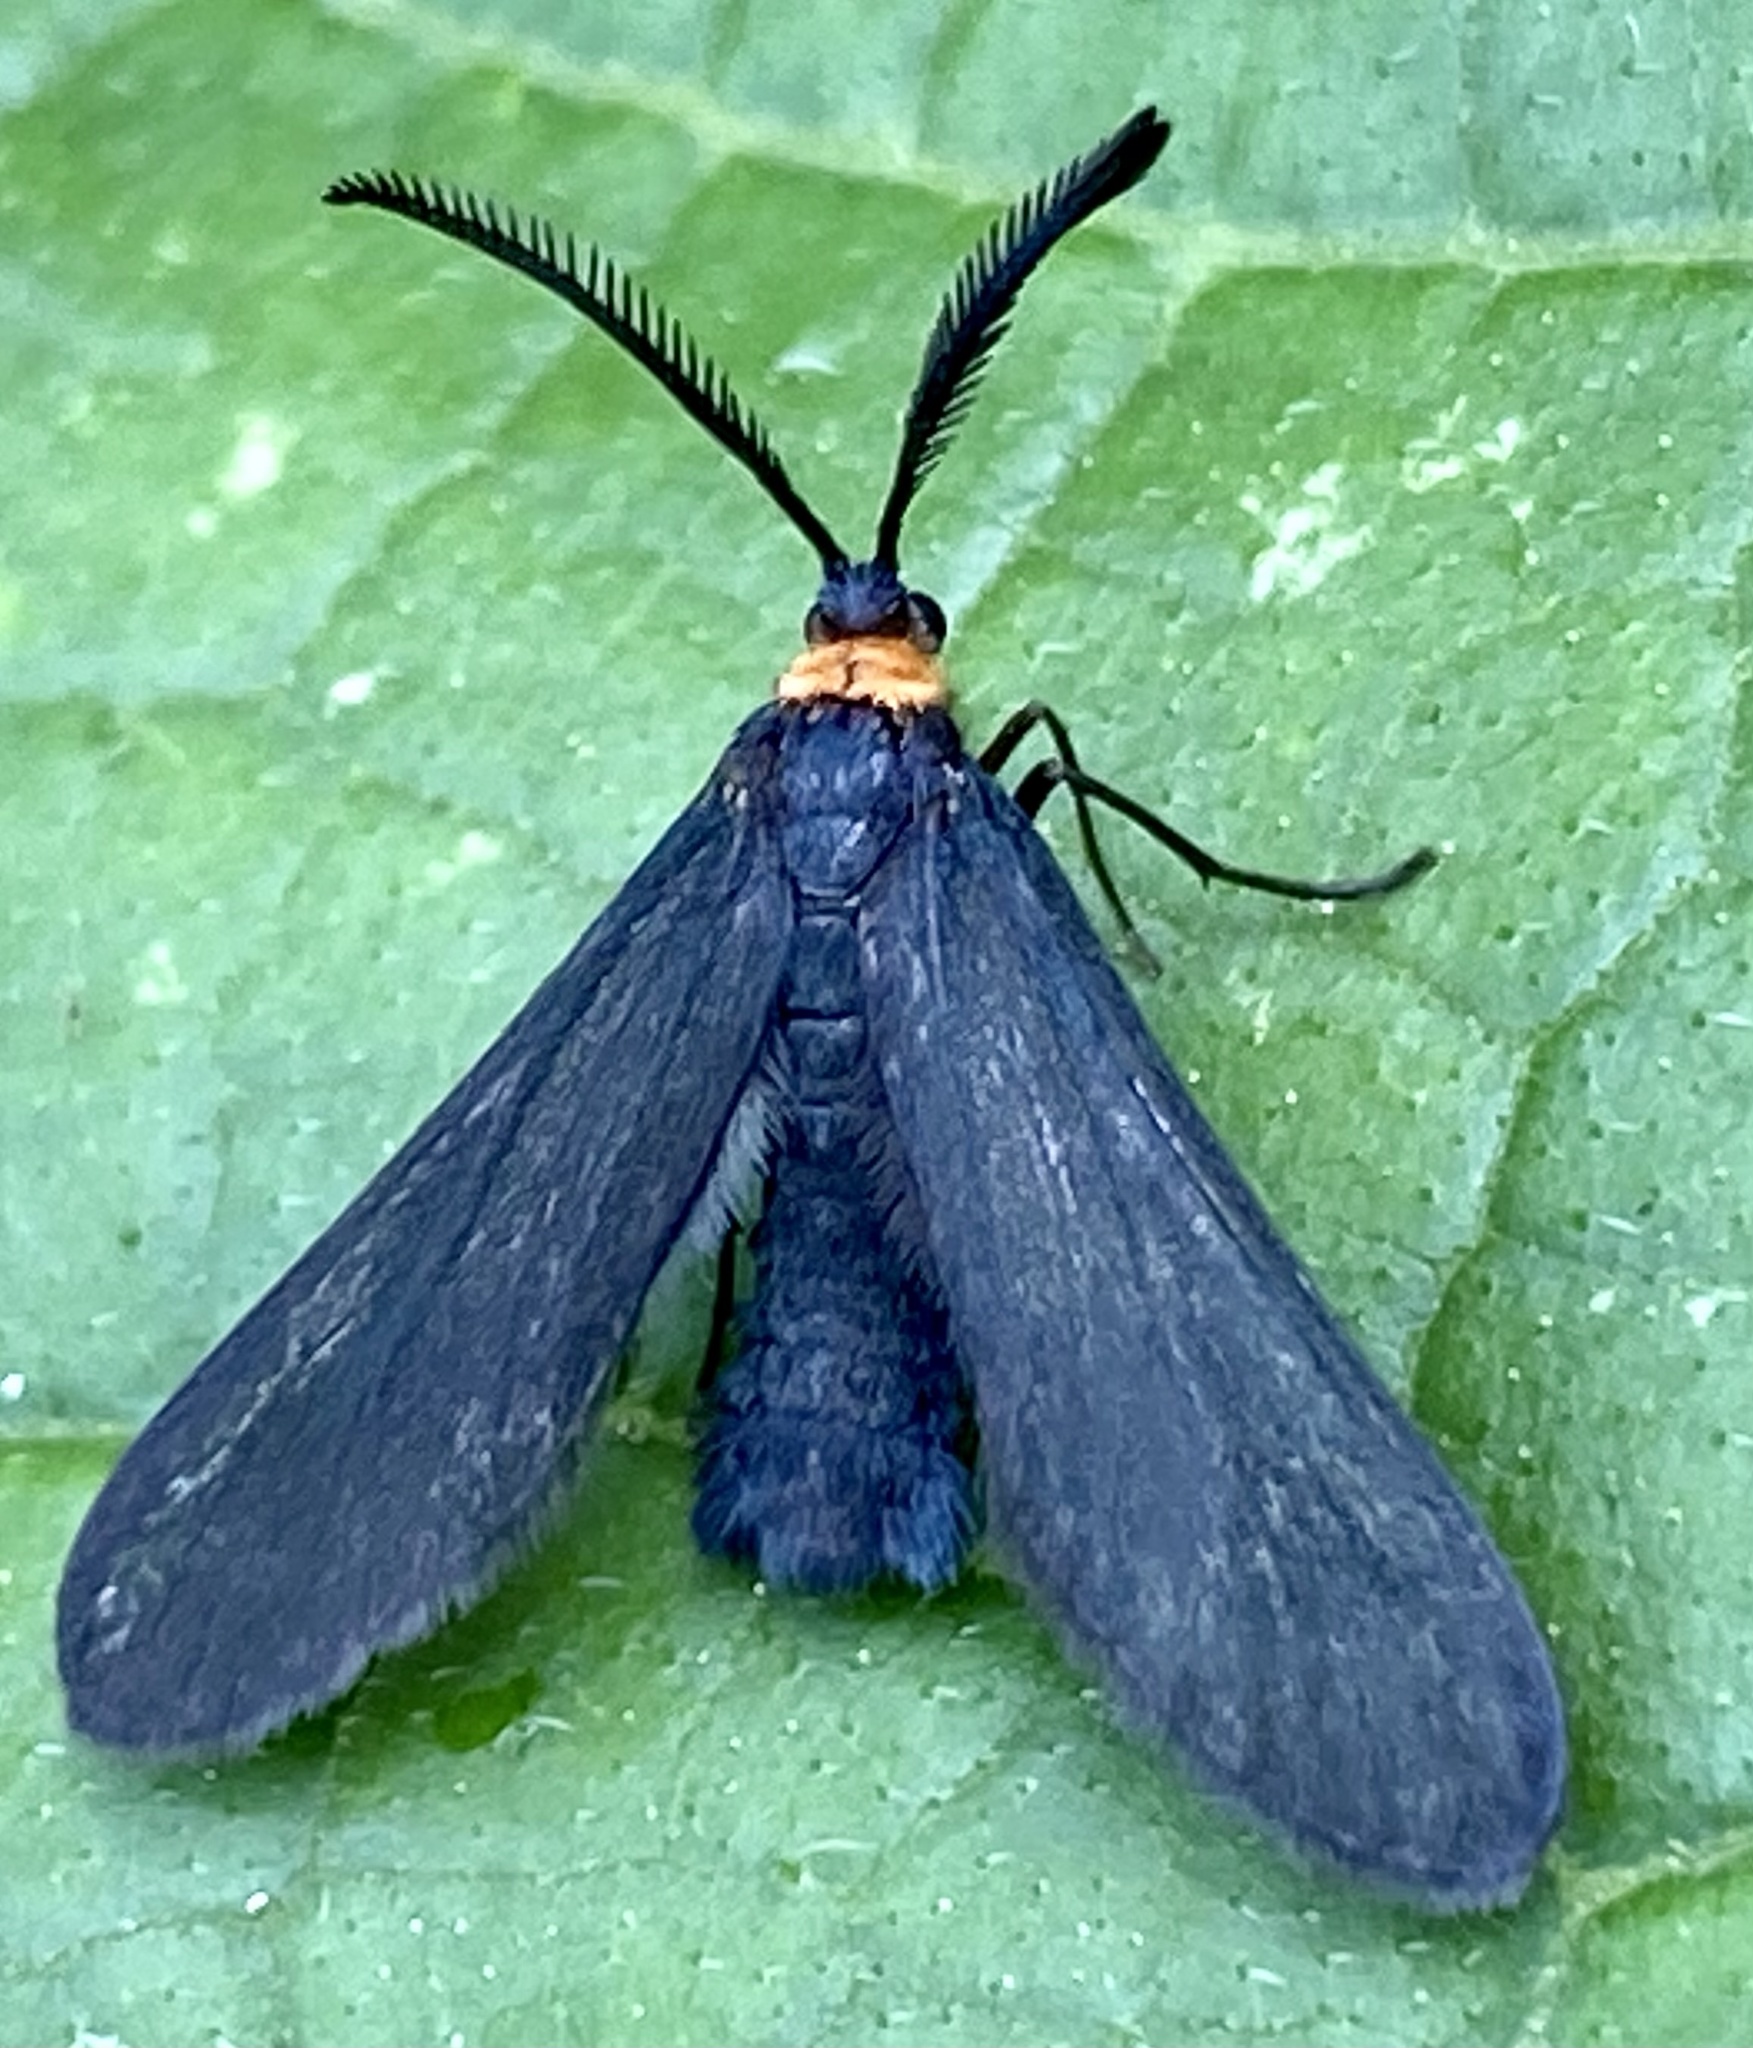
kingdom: Animalia
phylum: Arthropoda
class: Insecta
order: Lepidoptera
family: Zygaenidae
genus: Harrisina
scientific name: Harrisina americana
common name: Grapeleaf skeletonizer moth
